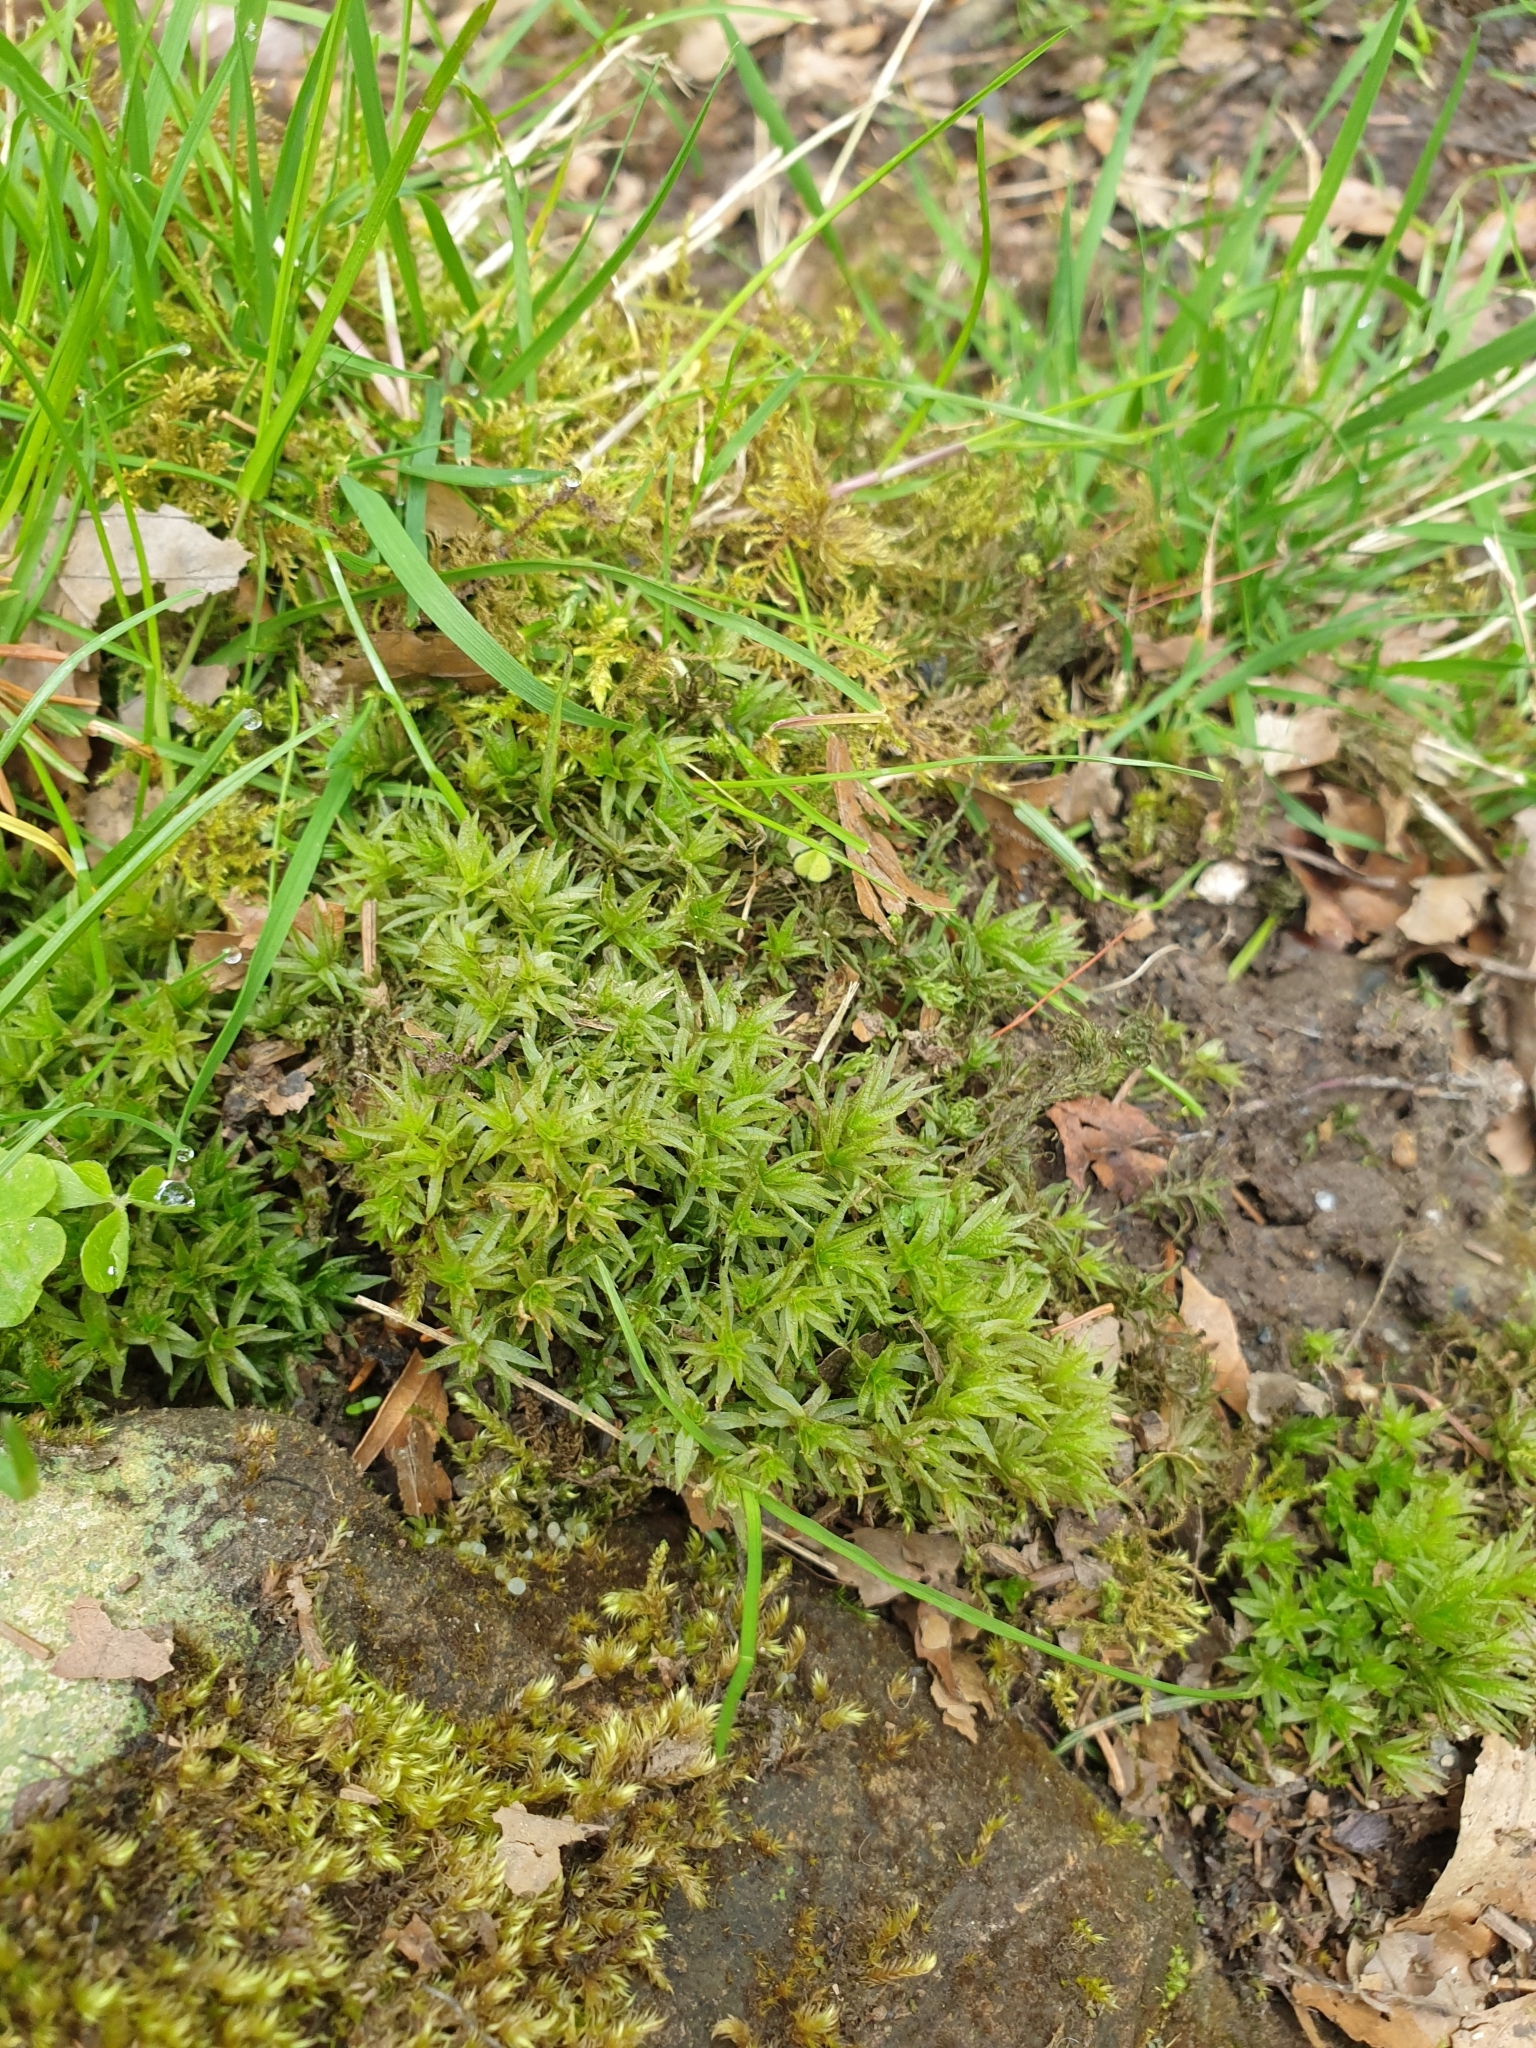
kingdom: Plantae
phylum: Bryophyta
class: Polytrichopsida
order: Polytrichales
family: Polytrichaceae
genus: Atrichum
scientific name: Atrichum undulatum
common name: Common smoothcap
